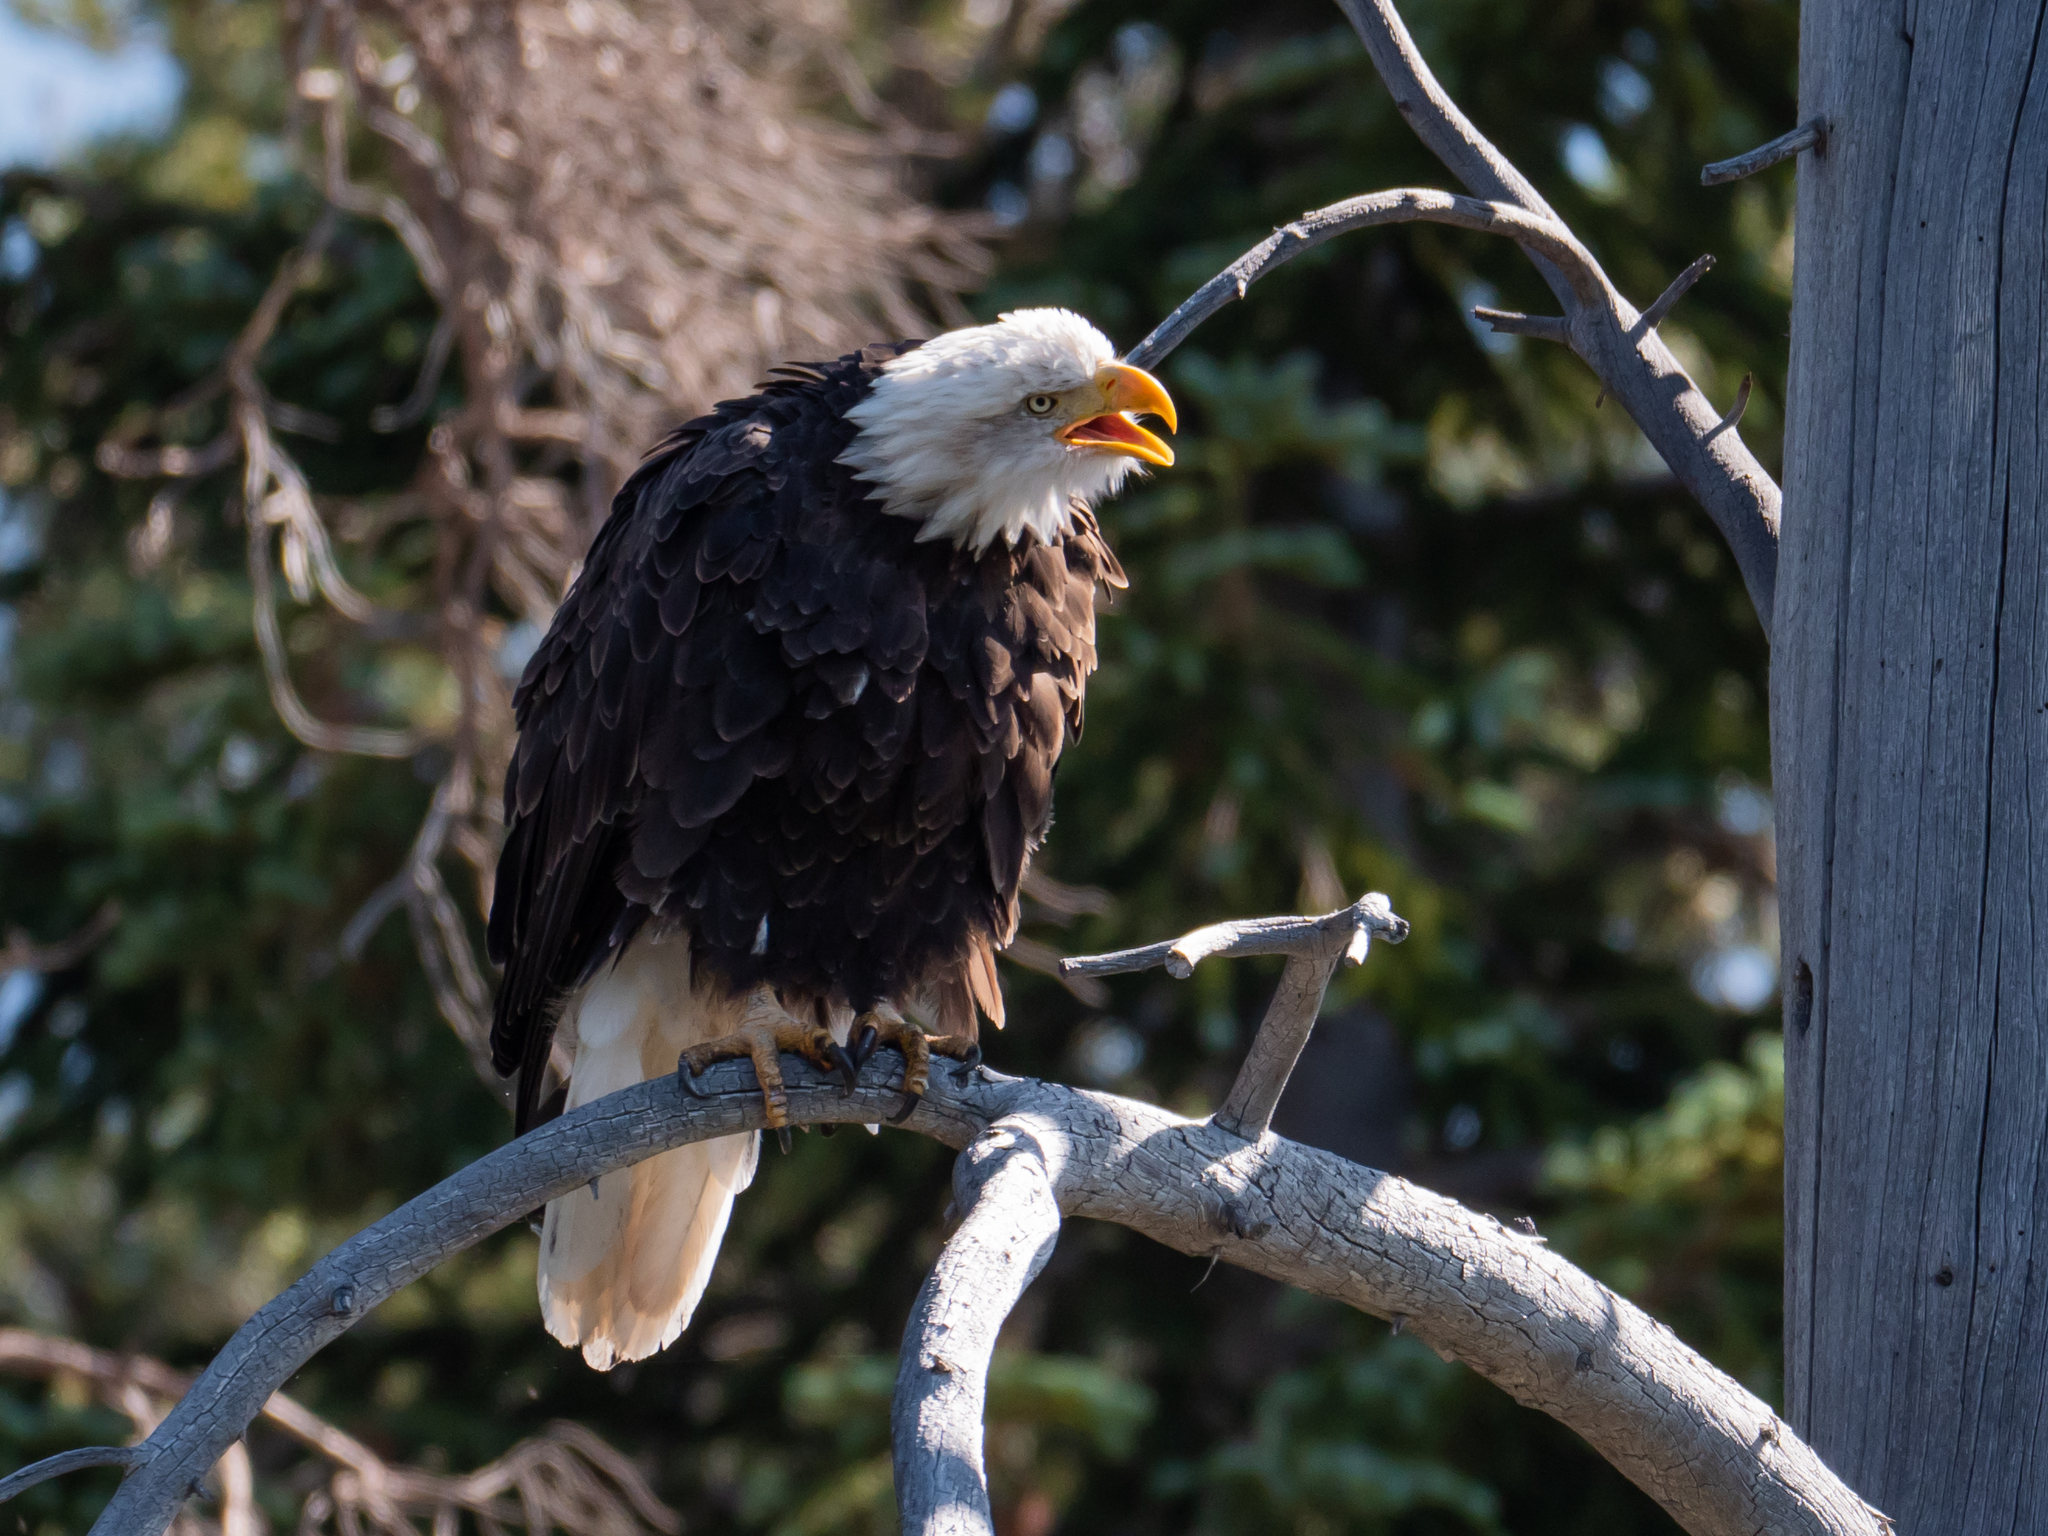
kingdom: Animalia
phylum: Chordata
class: Aves
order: Accipitriformes
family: Accipitridae
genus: Haliaeetus
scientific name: Haliaeetus leucocephalus
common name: Bald eagle
